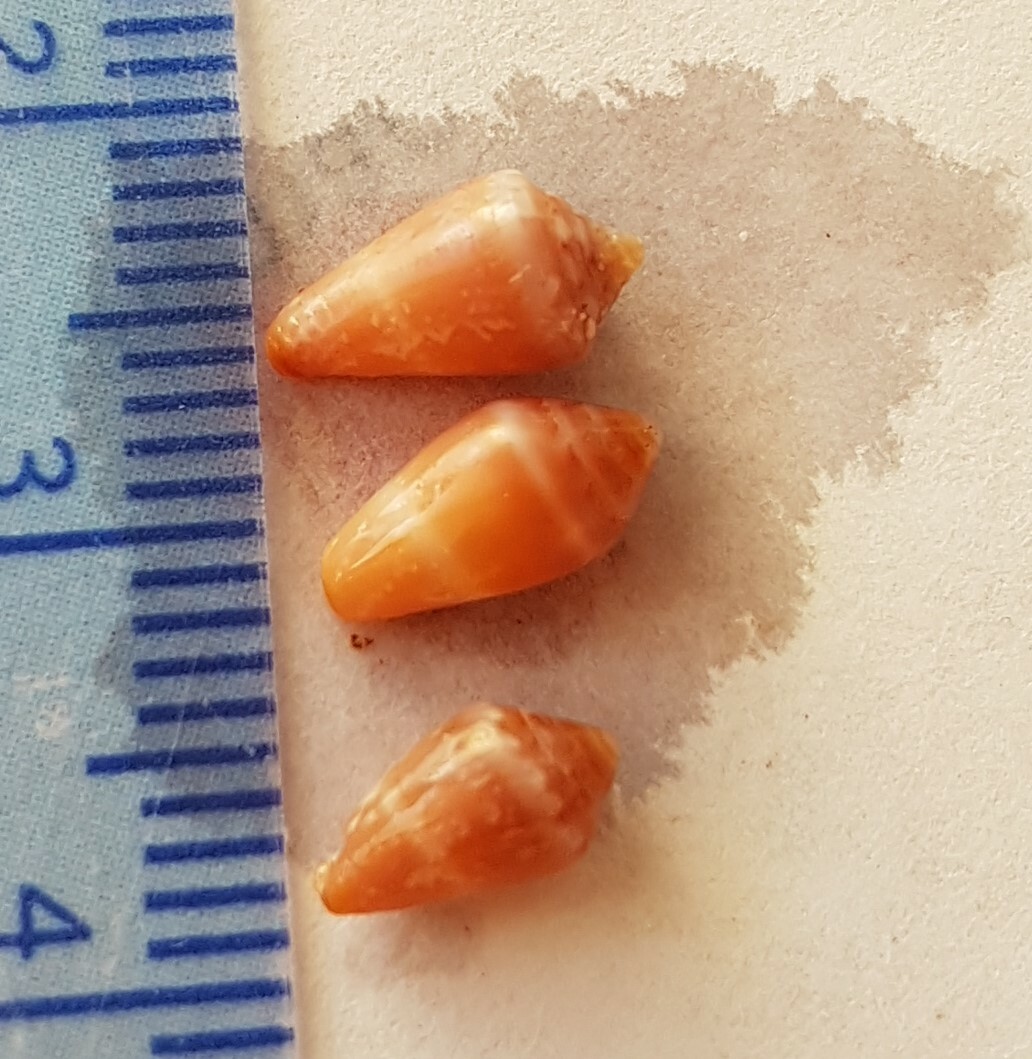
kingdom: Animalia
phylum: Mollusca
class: Gastropoda
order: Neogastropoda
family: Conidae
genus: Conus
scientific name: Conus ventricosus
